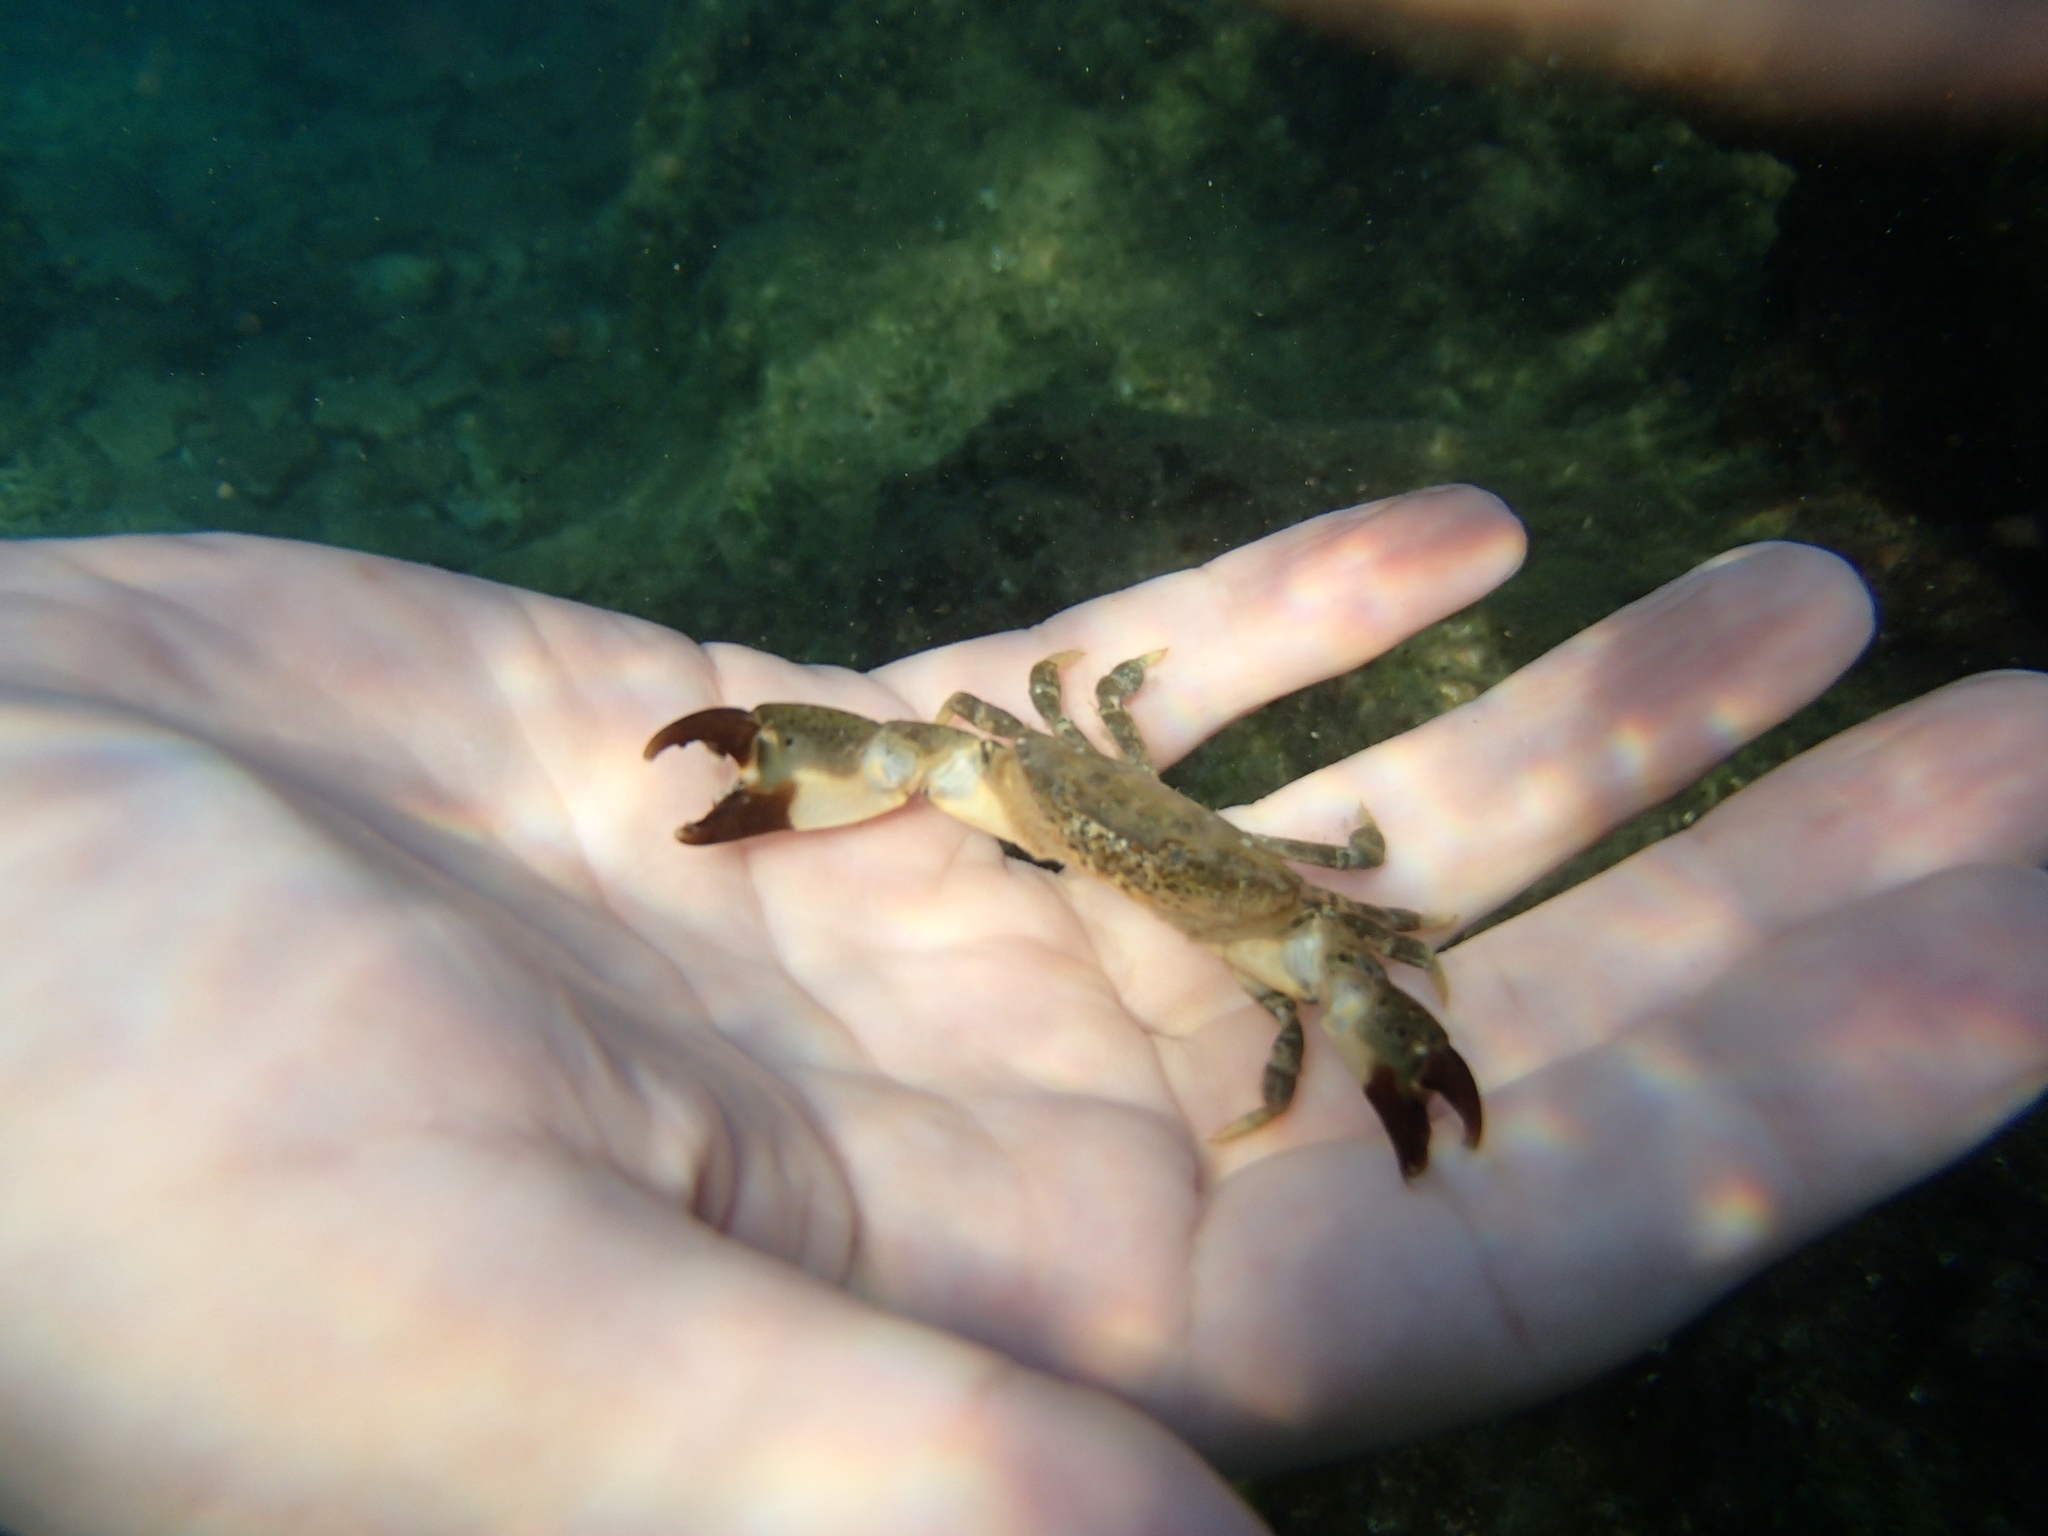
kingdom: Animalia
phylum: Arthropoda
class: Malacostraca
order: Decapoda
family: Xanthidae
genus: Xantho
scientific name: Xantho poressa
